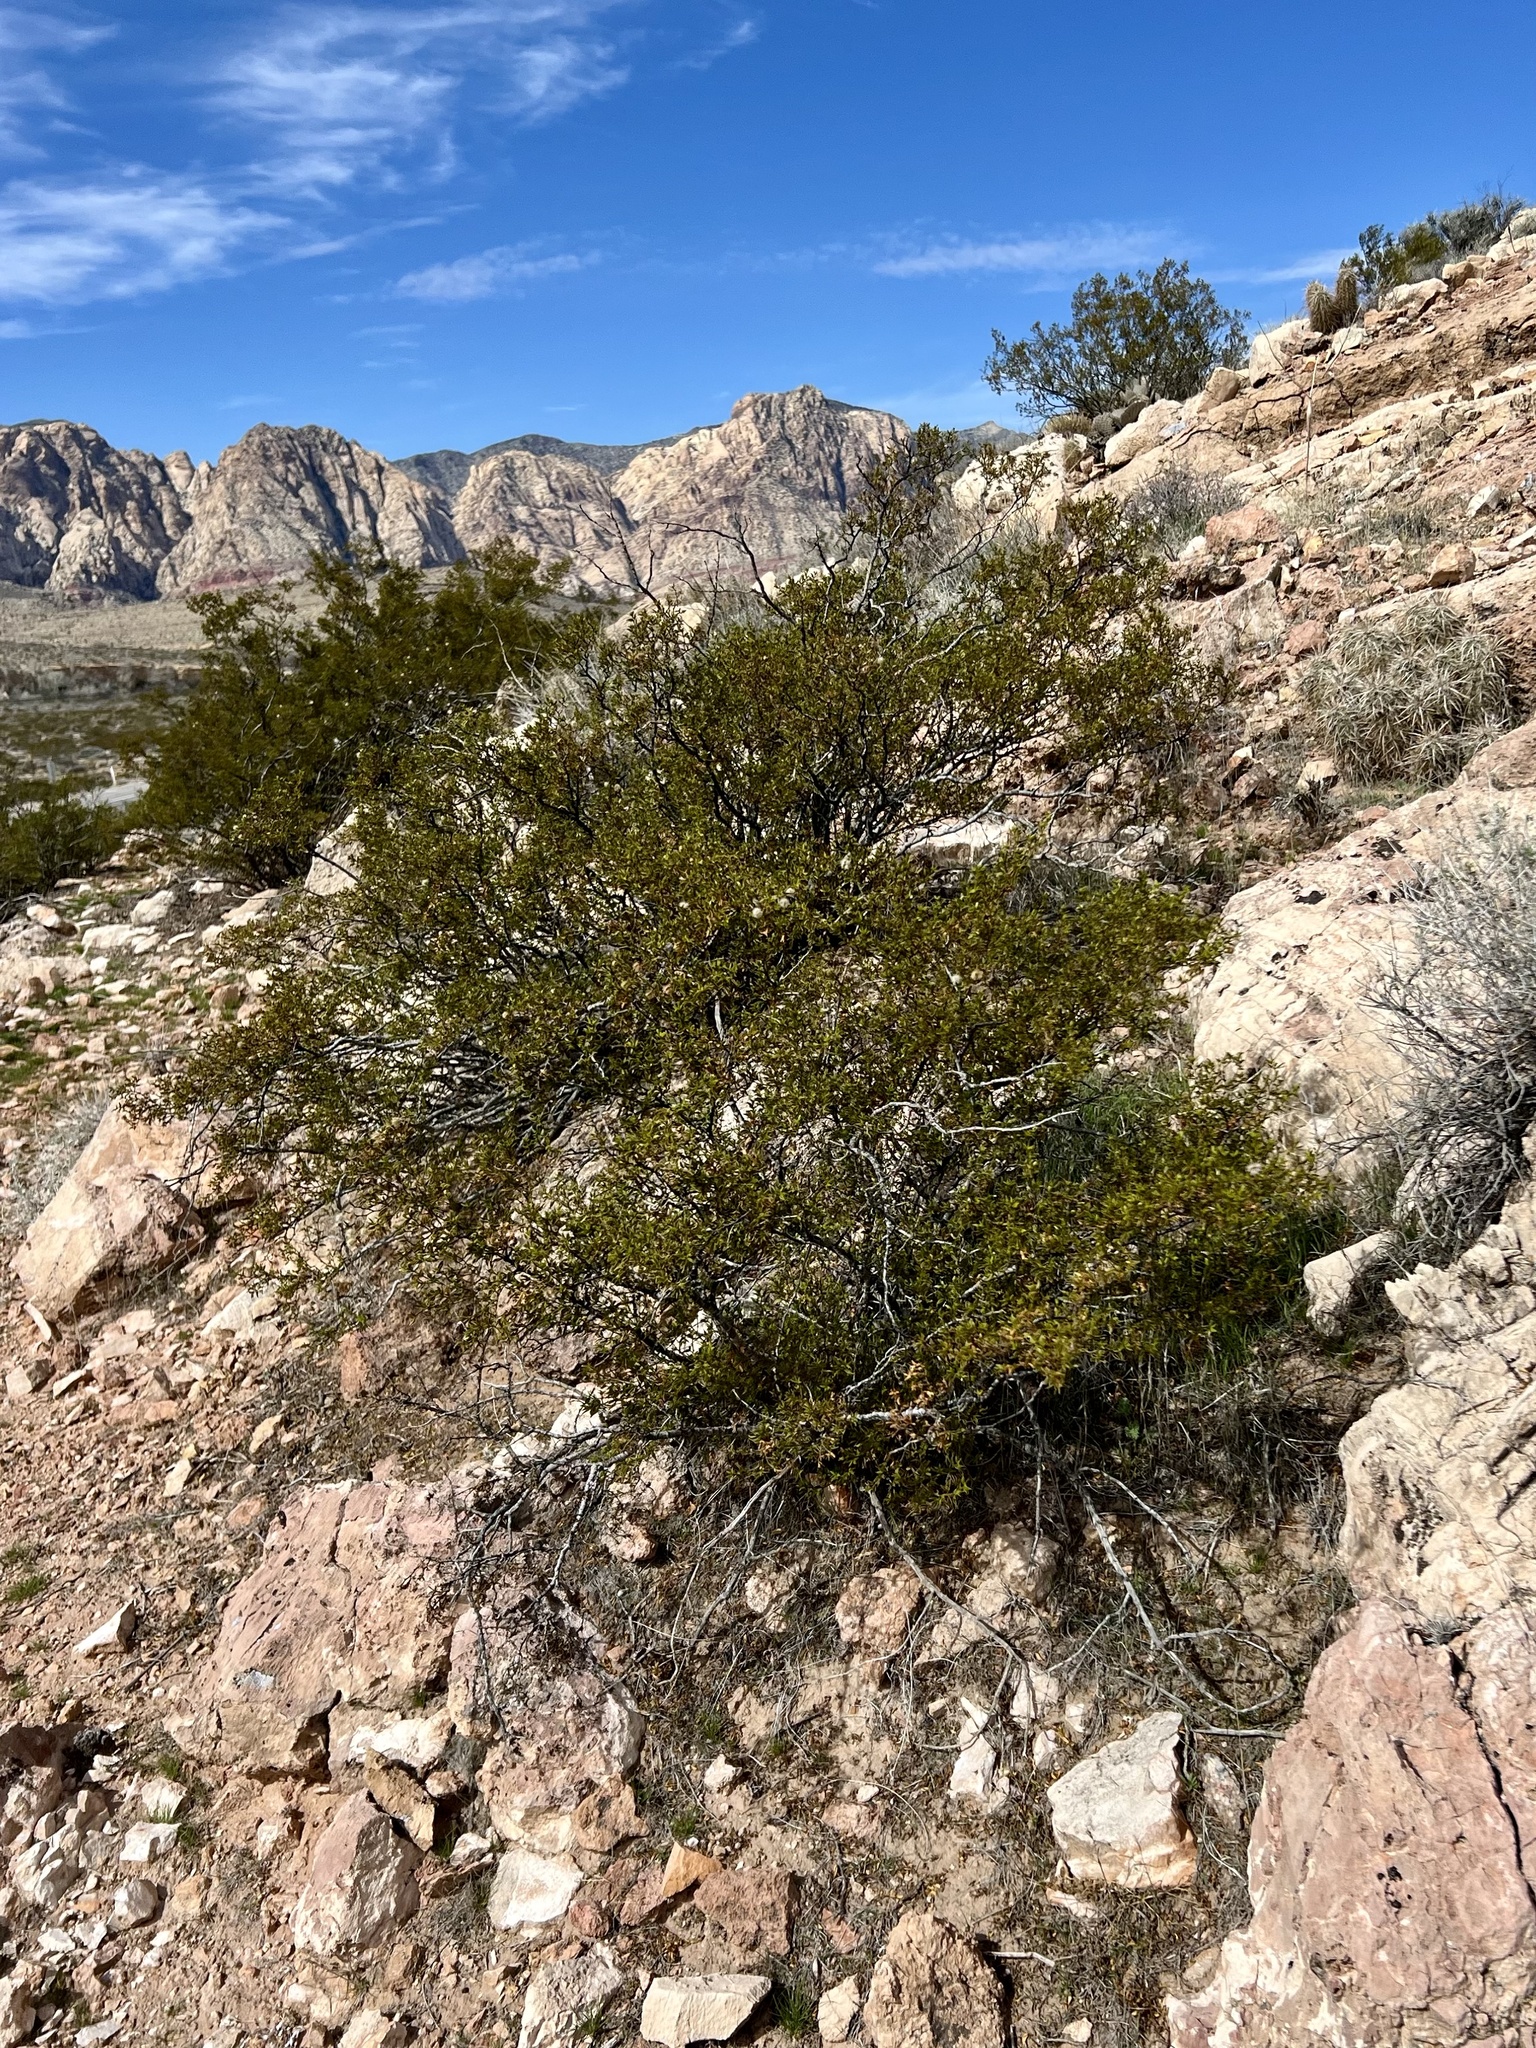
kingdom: Plantae
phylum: Tracheophyta
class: Magnoliopsida
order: Zygophyllales
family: Zygophyllaceae
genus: Larrea
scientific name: Larrea tridentata
